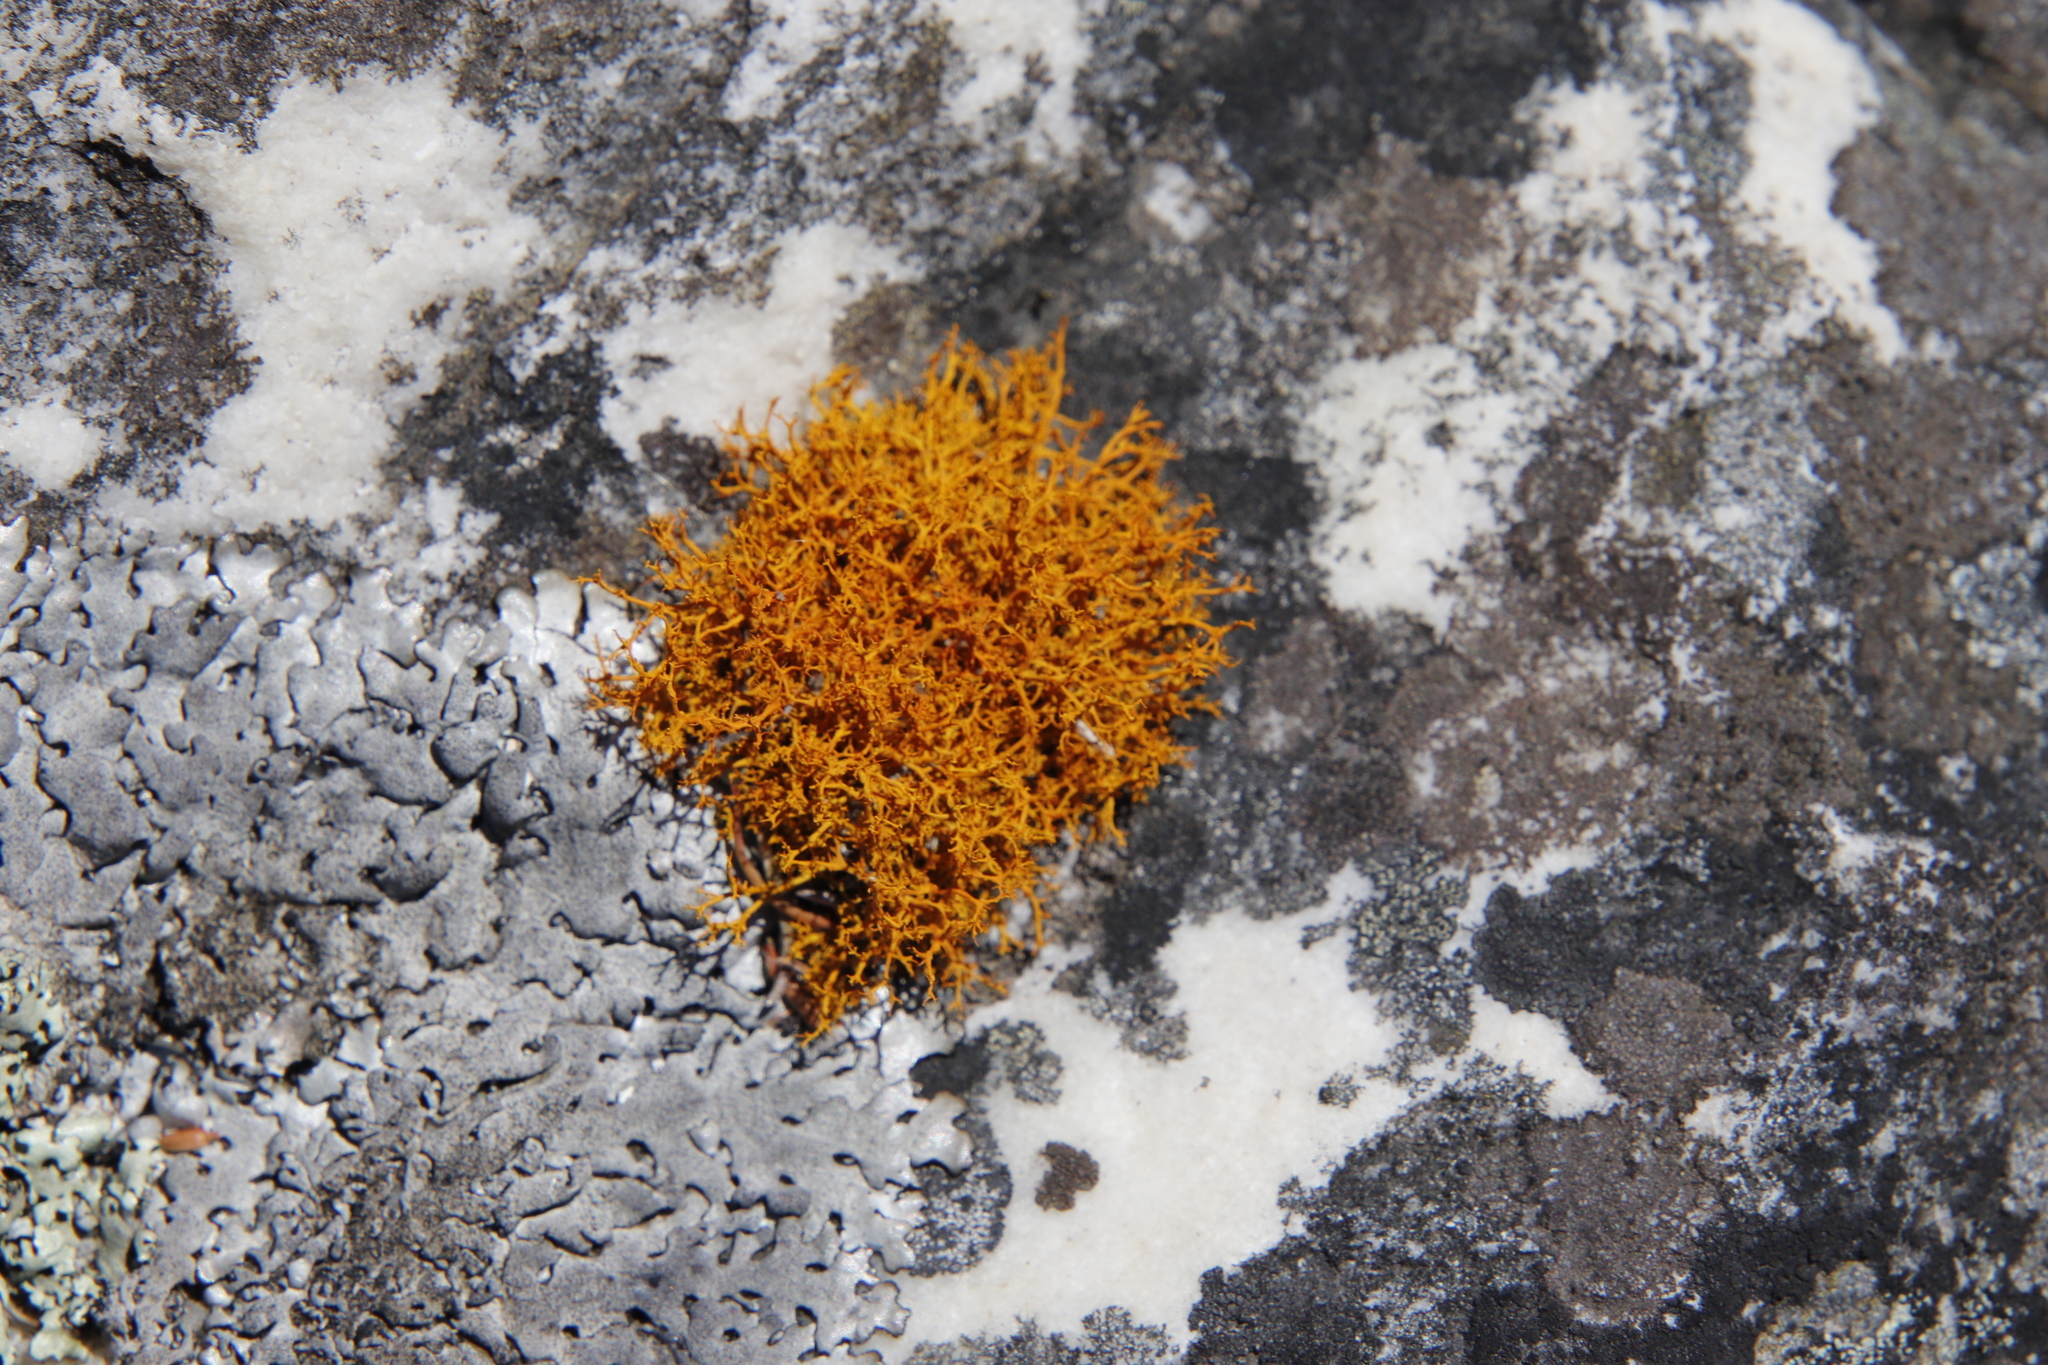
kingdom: Fungi
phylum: Ascomycota
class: Lecanoromycetes
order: Teloschistales
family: Teloschistaceae
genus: Teloschistes
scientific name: Teloschistes flavicans
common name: Golden hair-lichen
